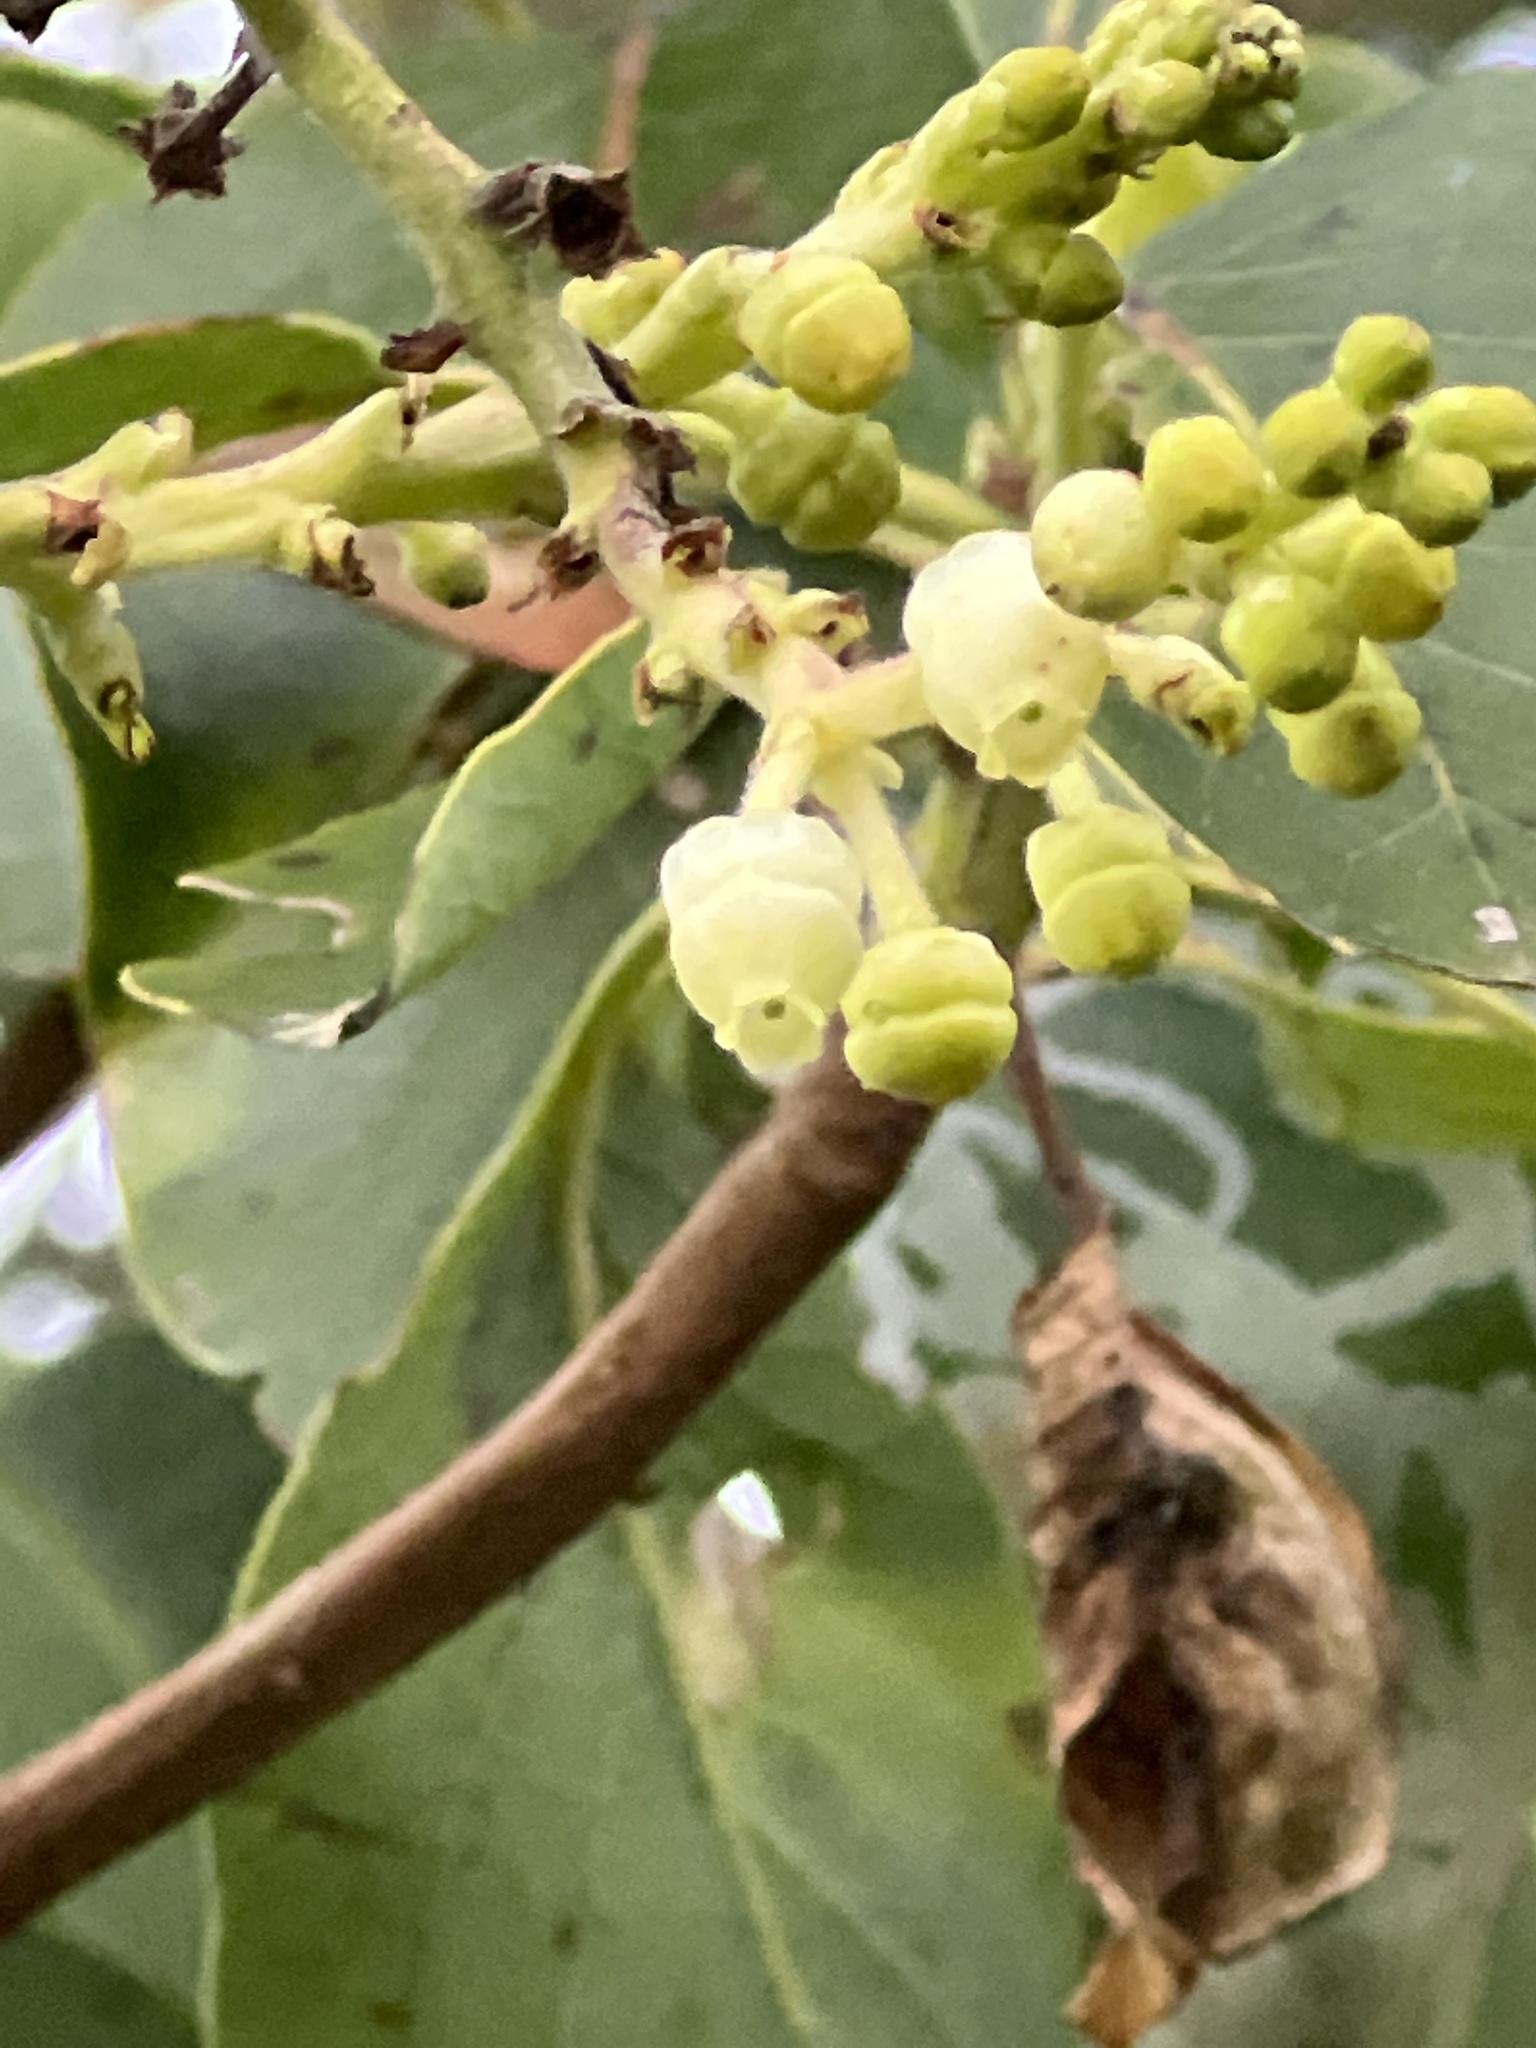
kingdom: Plantae
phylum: Tracheophyta
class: Magnoliopsida
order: Ericales
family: Ericaceae
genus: Arbutus
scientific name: Arbutus menziesii
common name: Pacific madrone
